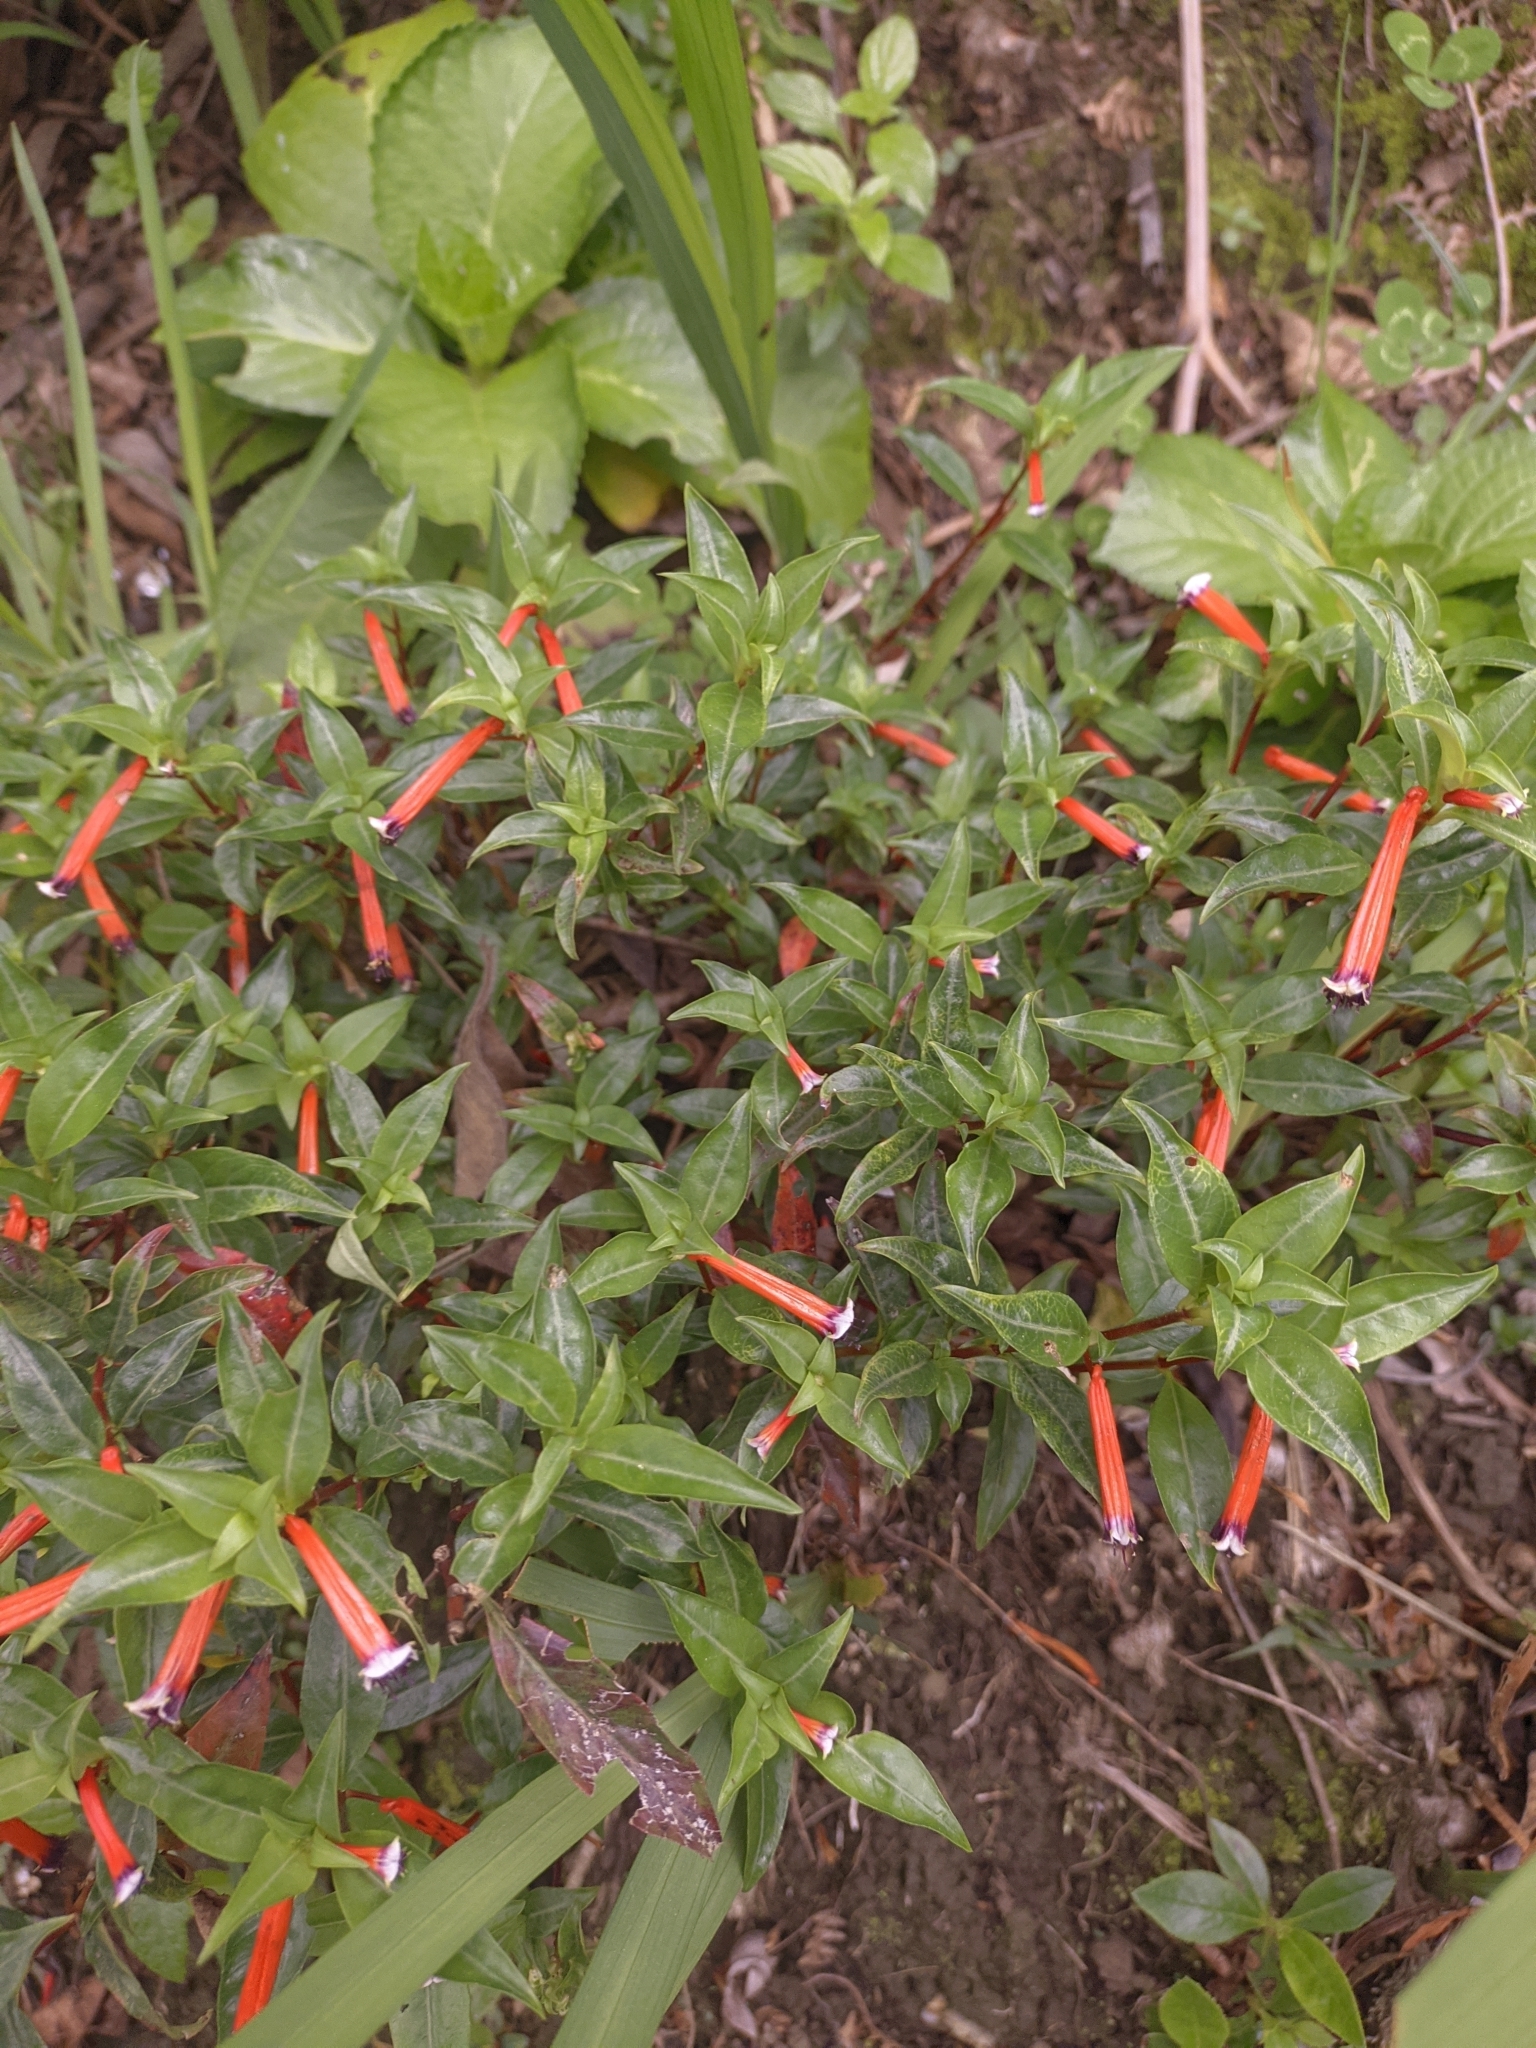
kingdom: Plantae
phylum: Tracheophyta
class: Magnoliopsida
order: Myrtales
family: Lythraceae
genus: Cuphea
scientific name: Cuphea ignea
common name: Cigar flower
